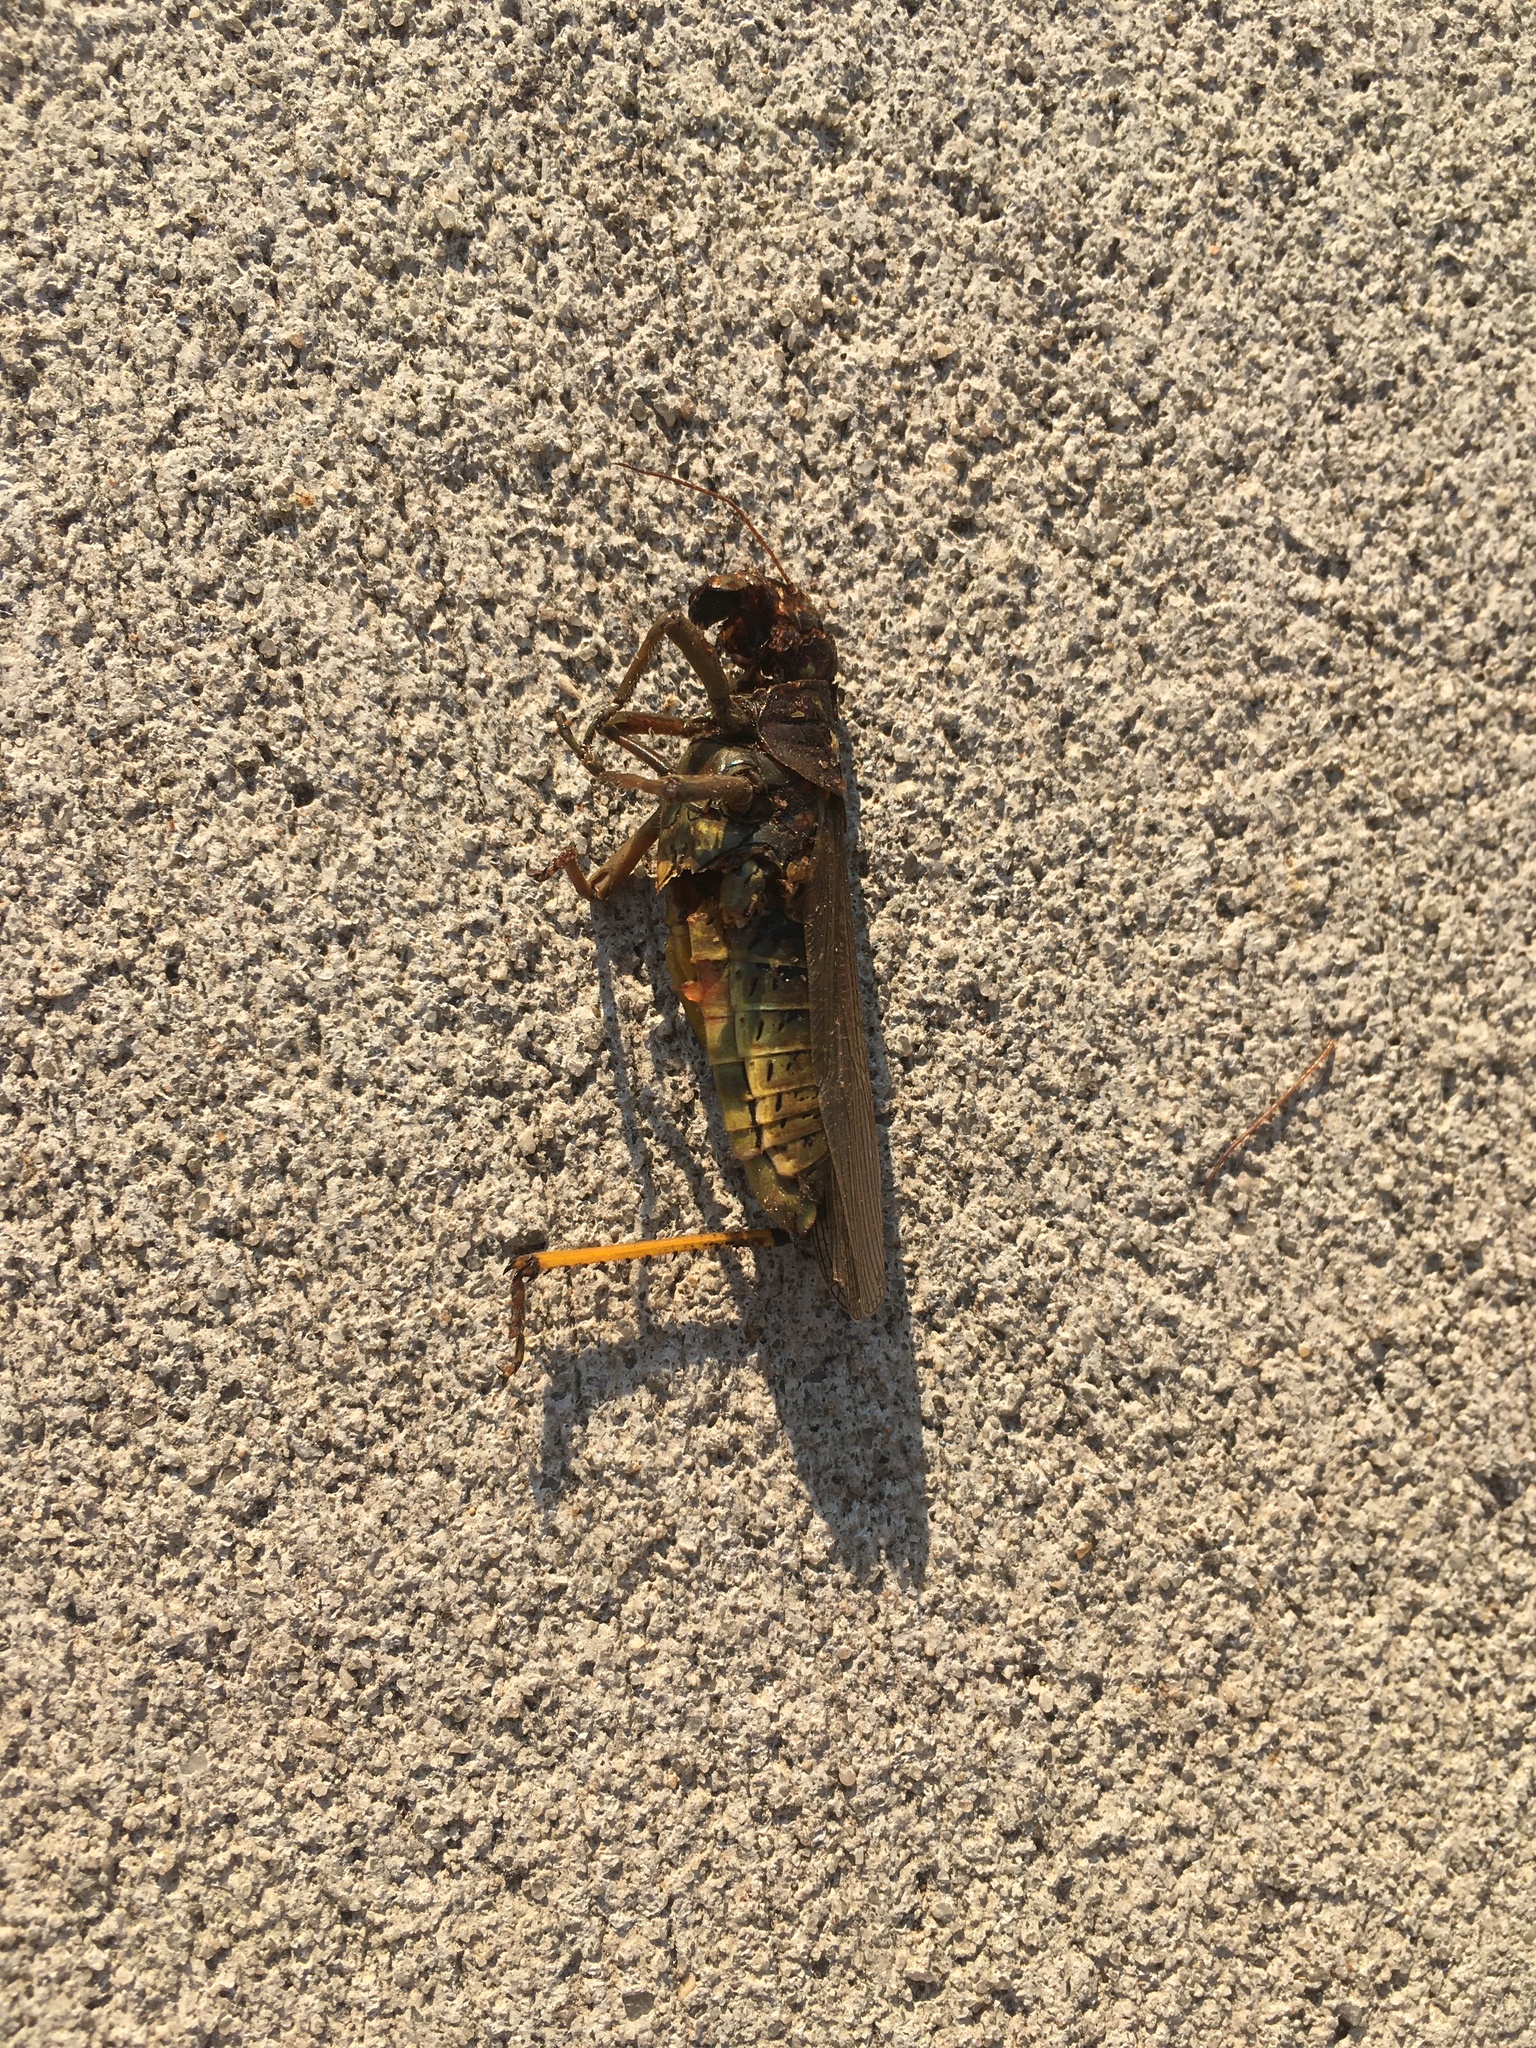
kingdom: Animalia
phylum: Arthropoda
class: Insecta
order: Orthoptera
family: Acrididae
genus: Melanoplus
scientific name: Melanoplus differentialis
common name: Differential grasshopper
